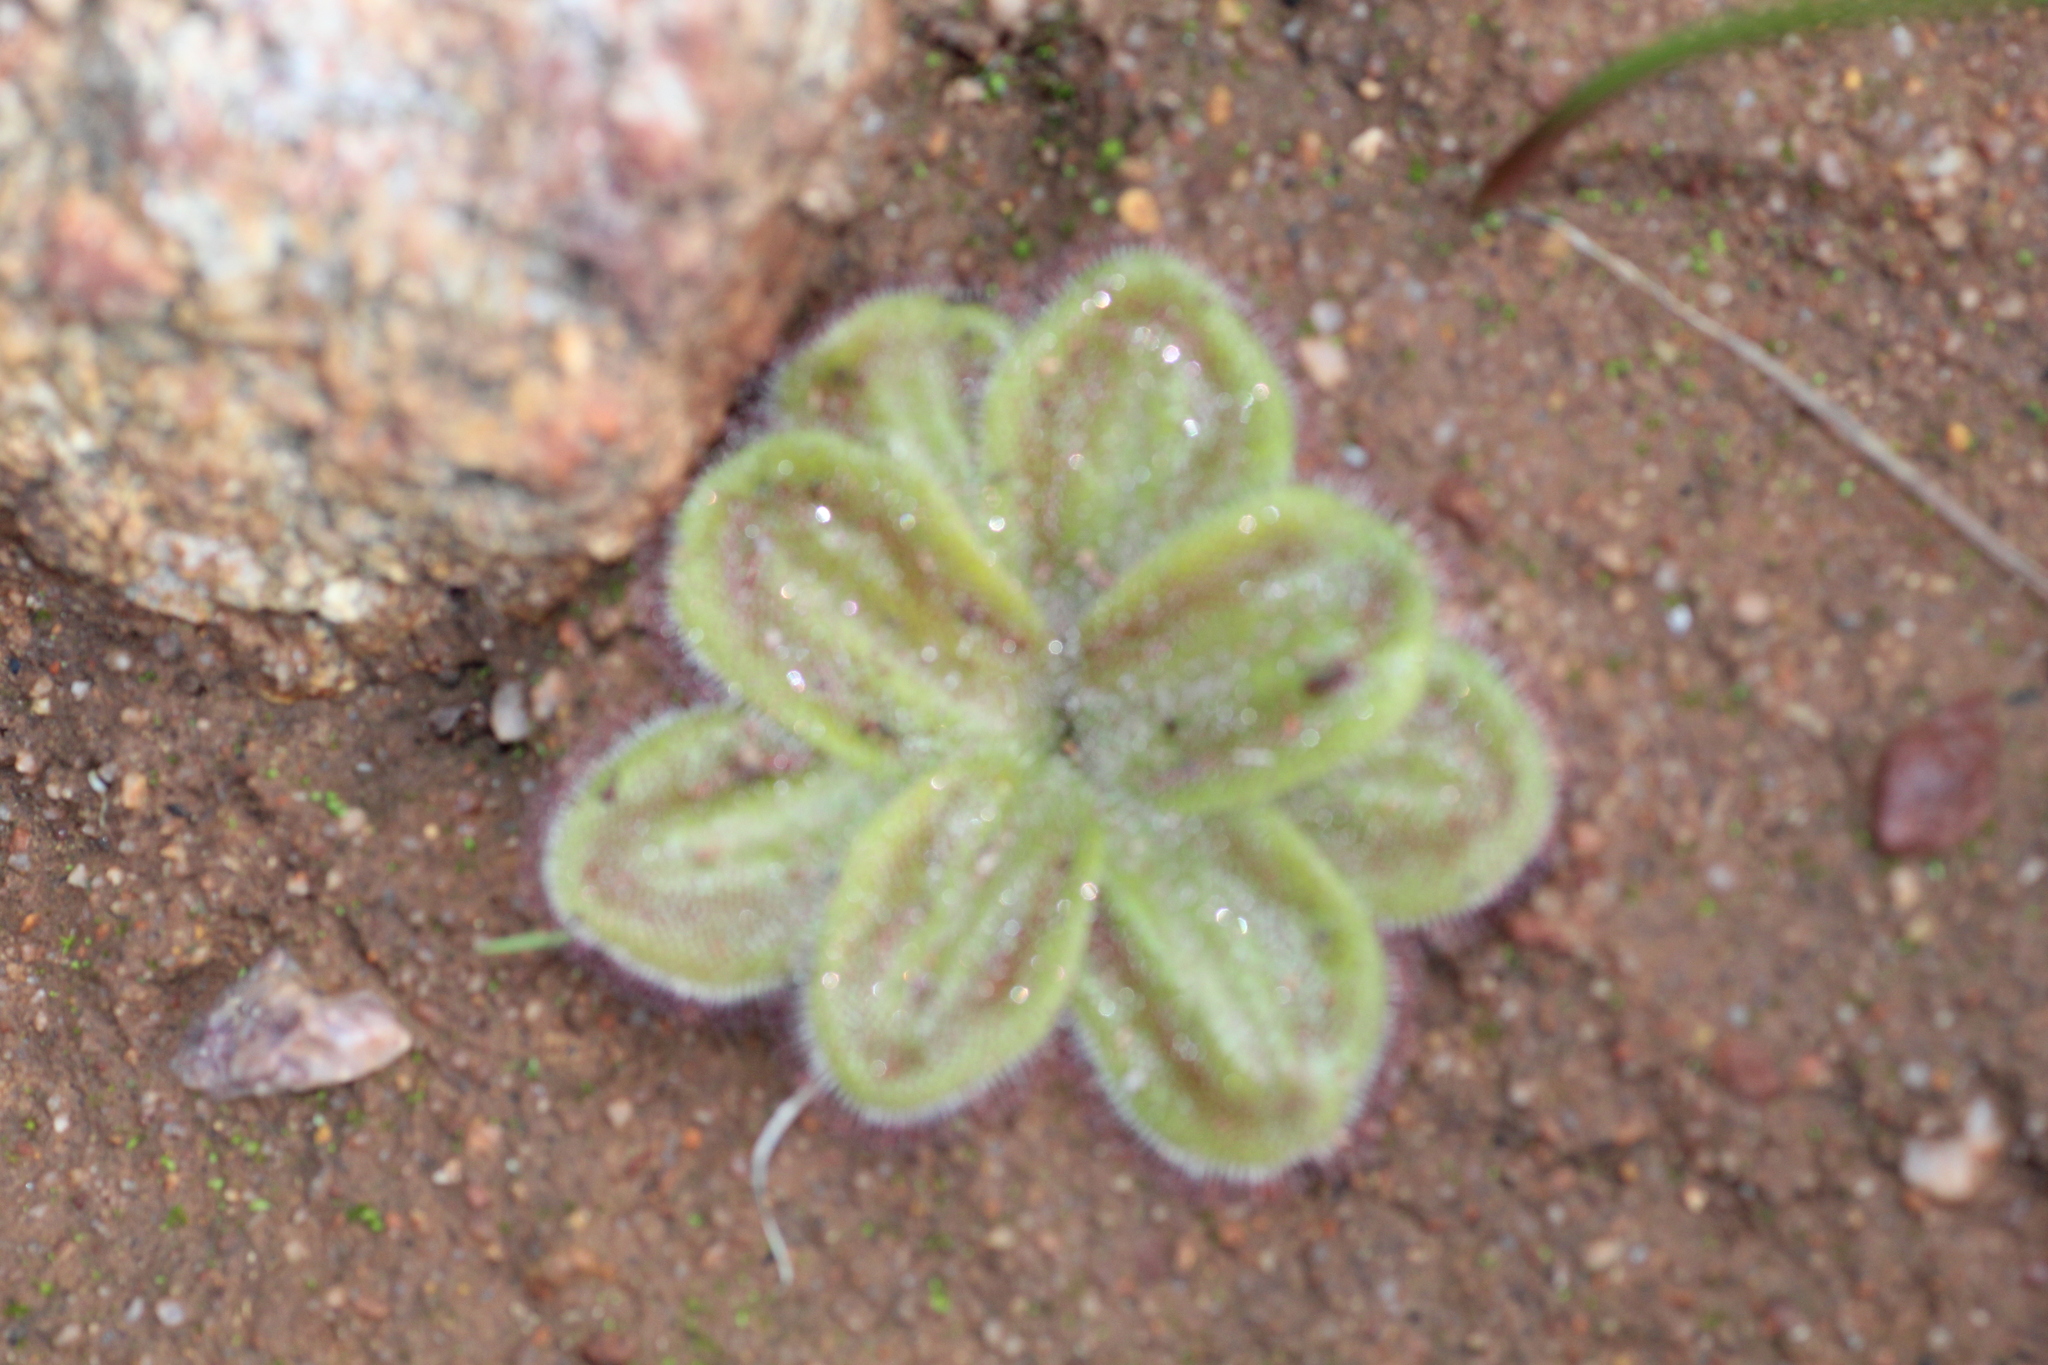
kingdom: Plantae
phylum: Tracheophyta
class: Magnoliopsida
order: Caryophyllales
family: Droseraceae
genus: Drosera
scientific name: Drosera erythrorhiza
